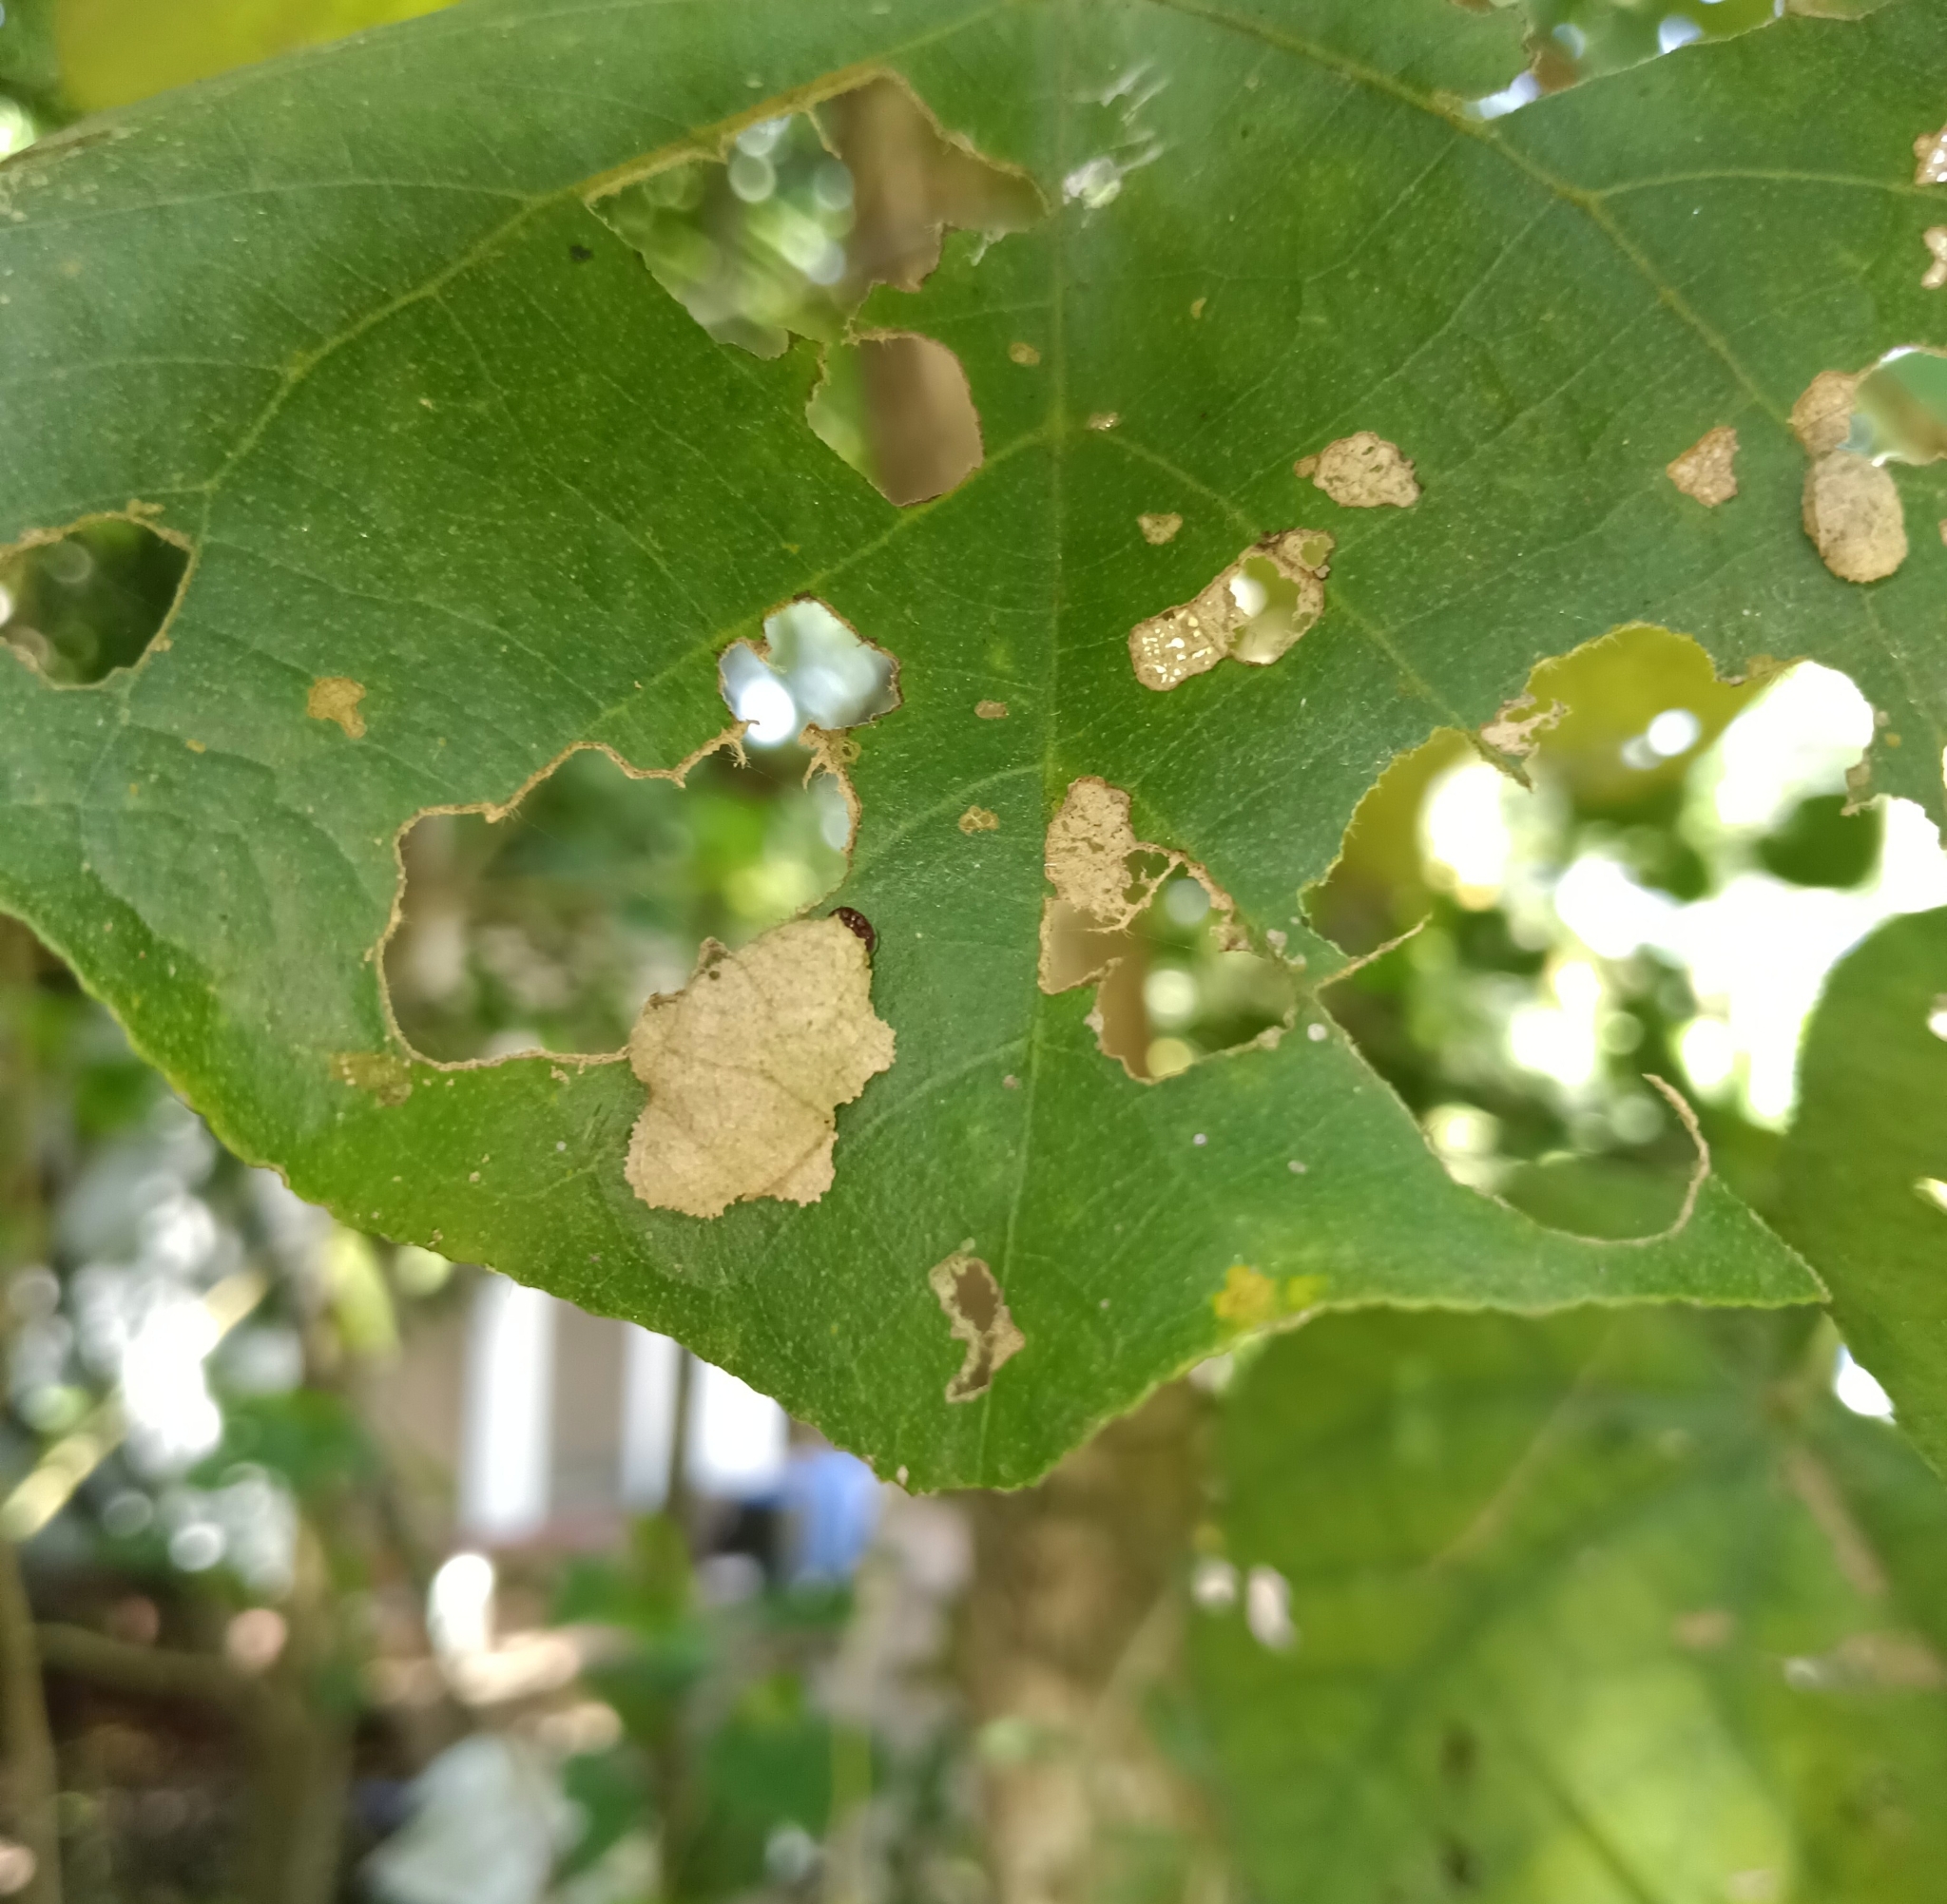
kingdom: Animalia
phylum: Arthropoda
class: Insecta
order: Lepidoptera
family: Hesperiidae
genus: Coladenia
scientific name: Coladenia
